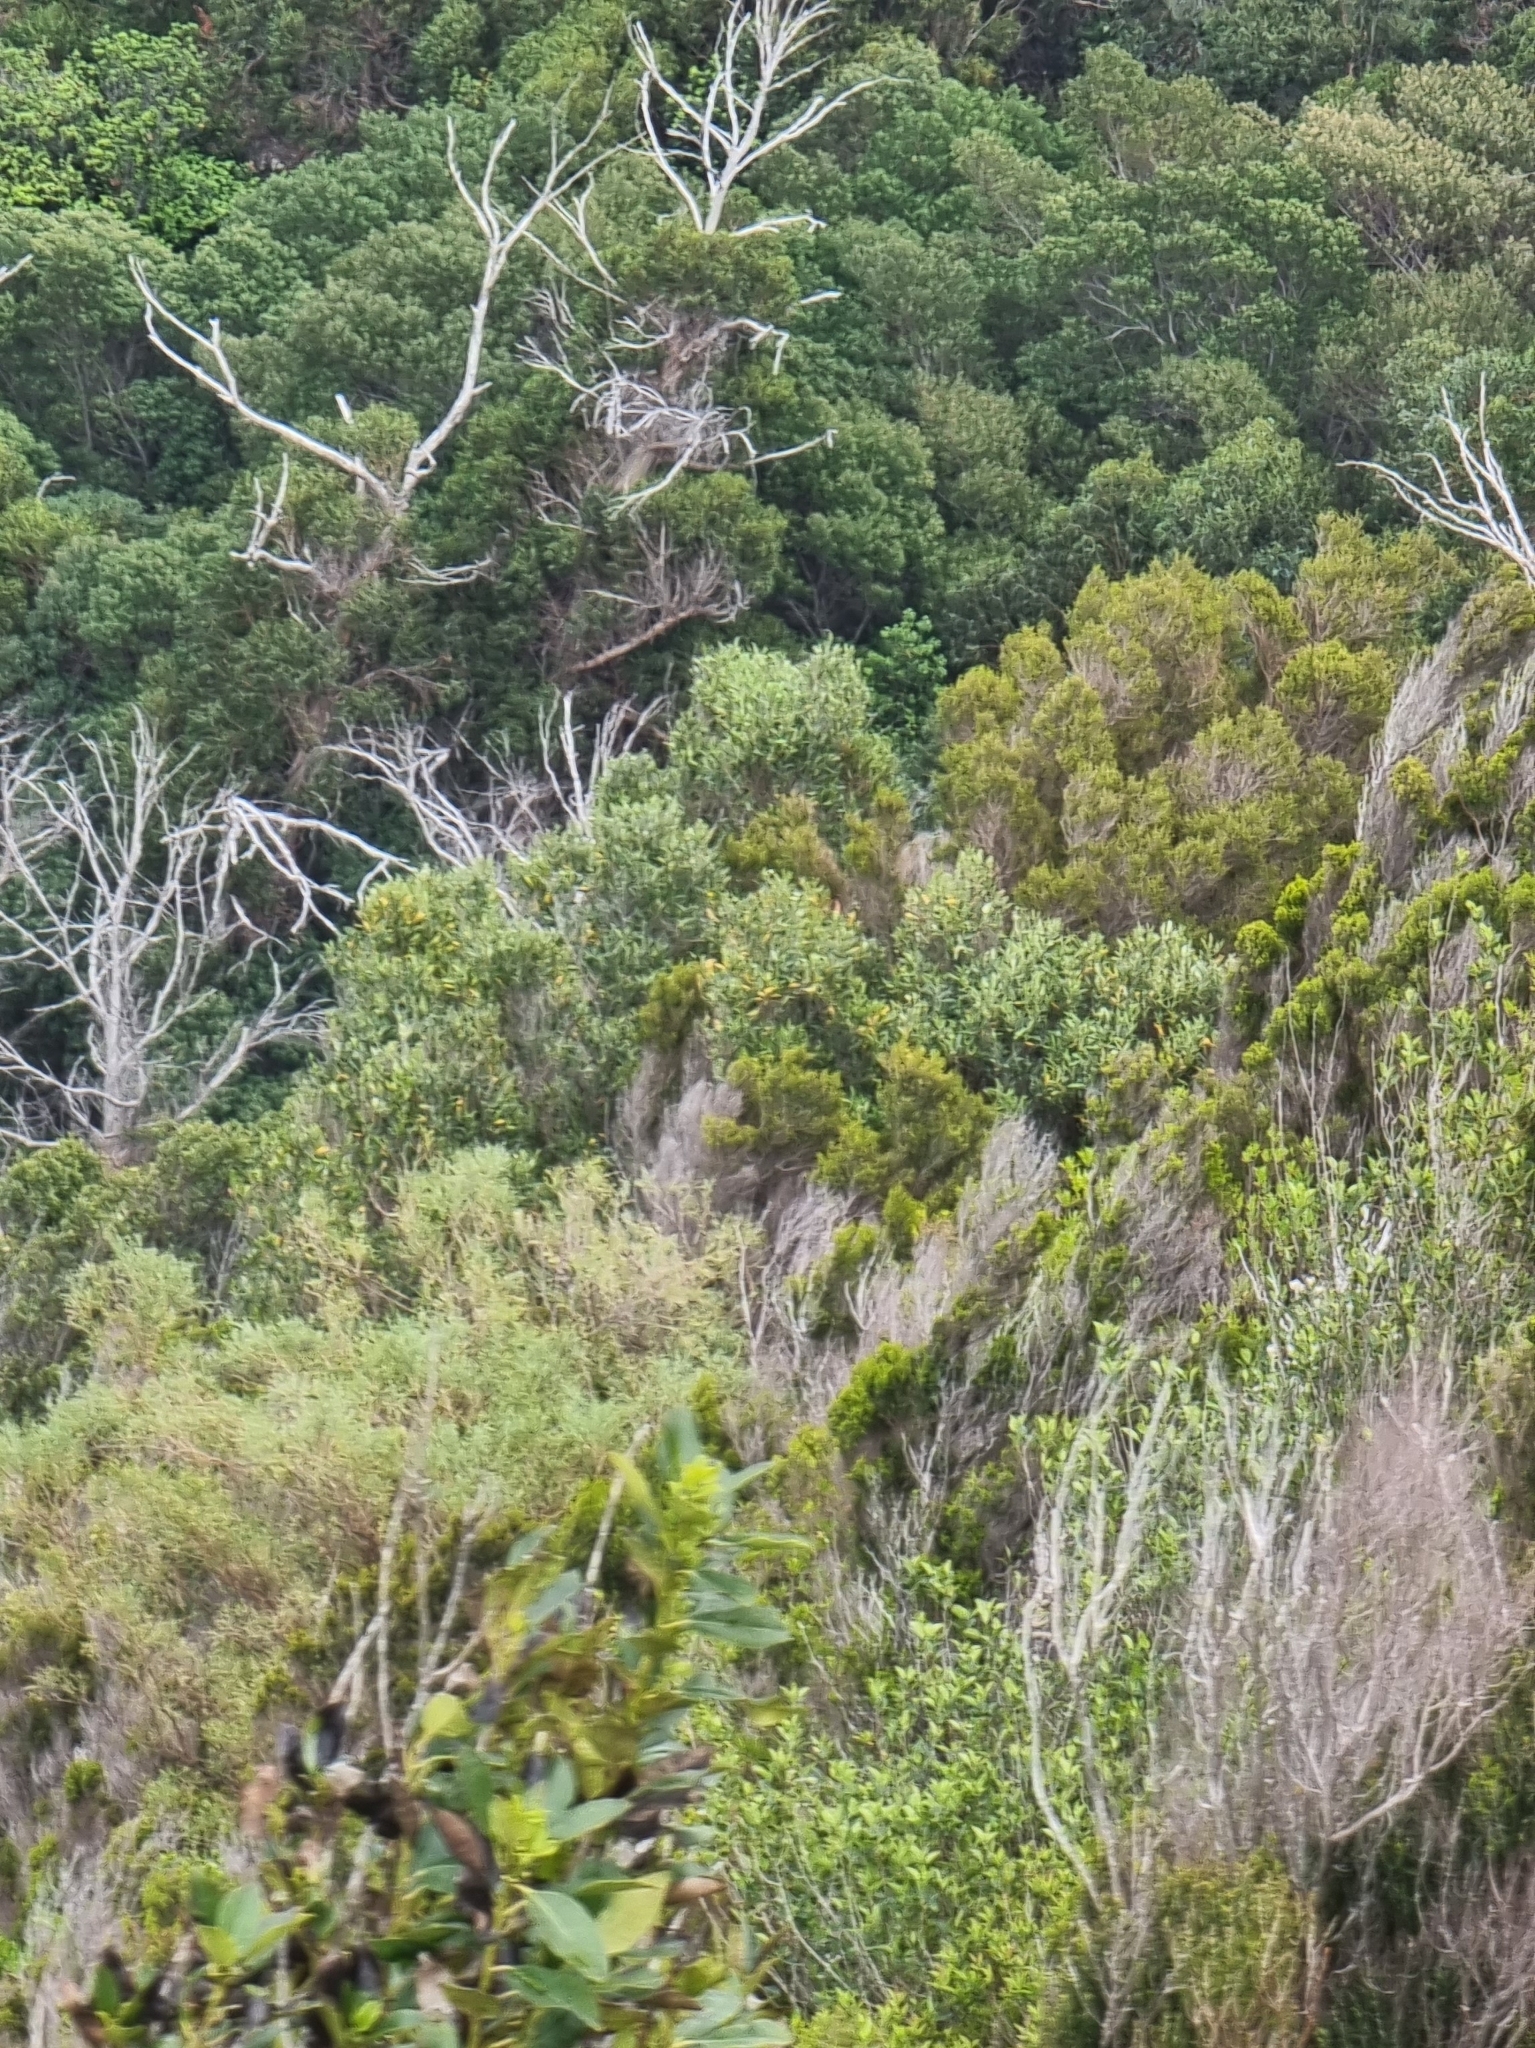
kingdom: Plantae
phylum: Tracheophyta
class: Magnoliopsida
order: Lamiales
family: Oleaceae
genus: Olea
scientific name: Olea europaea
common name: Olive
